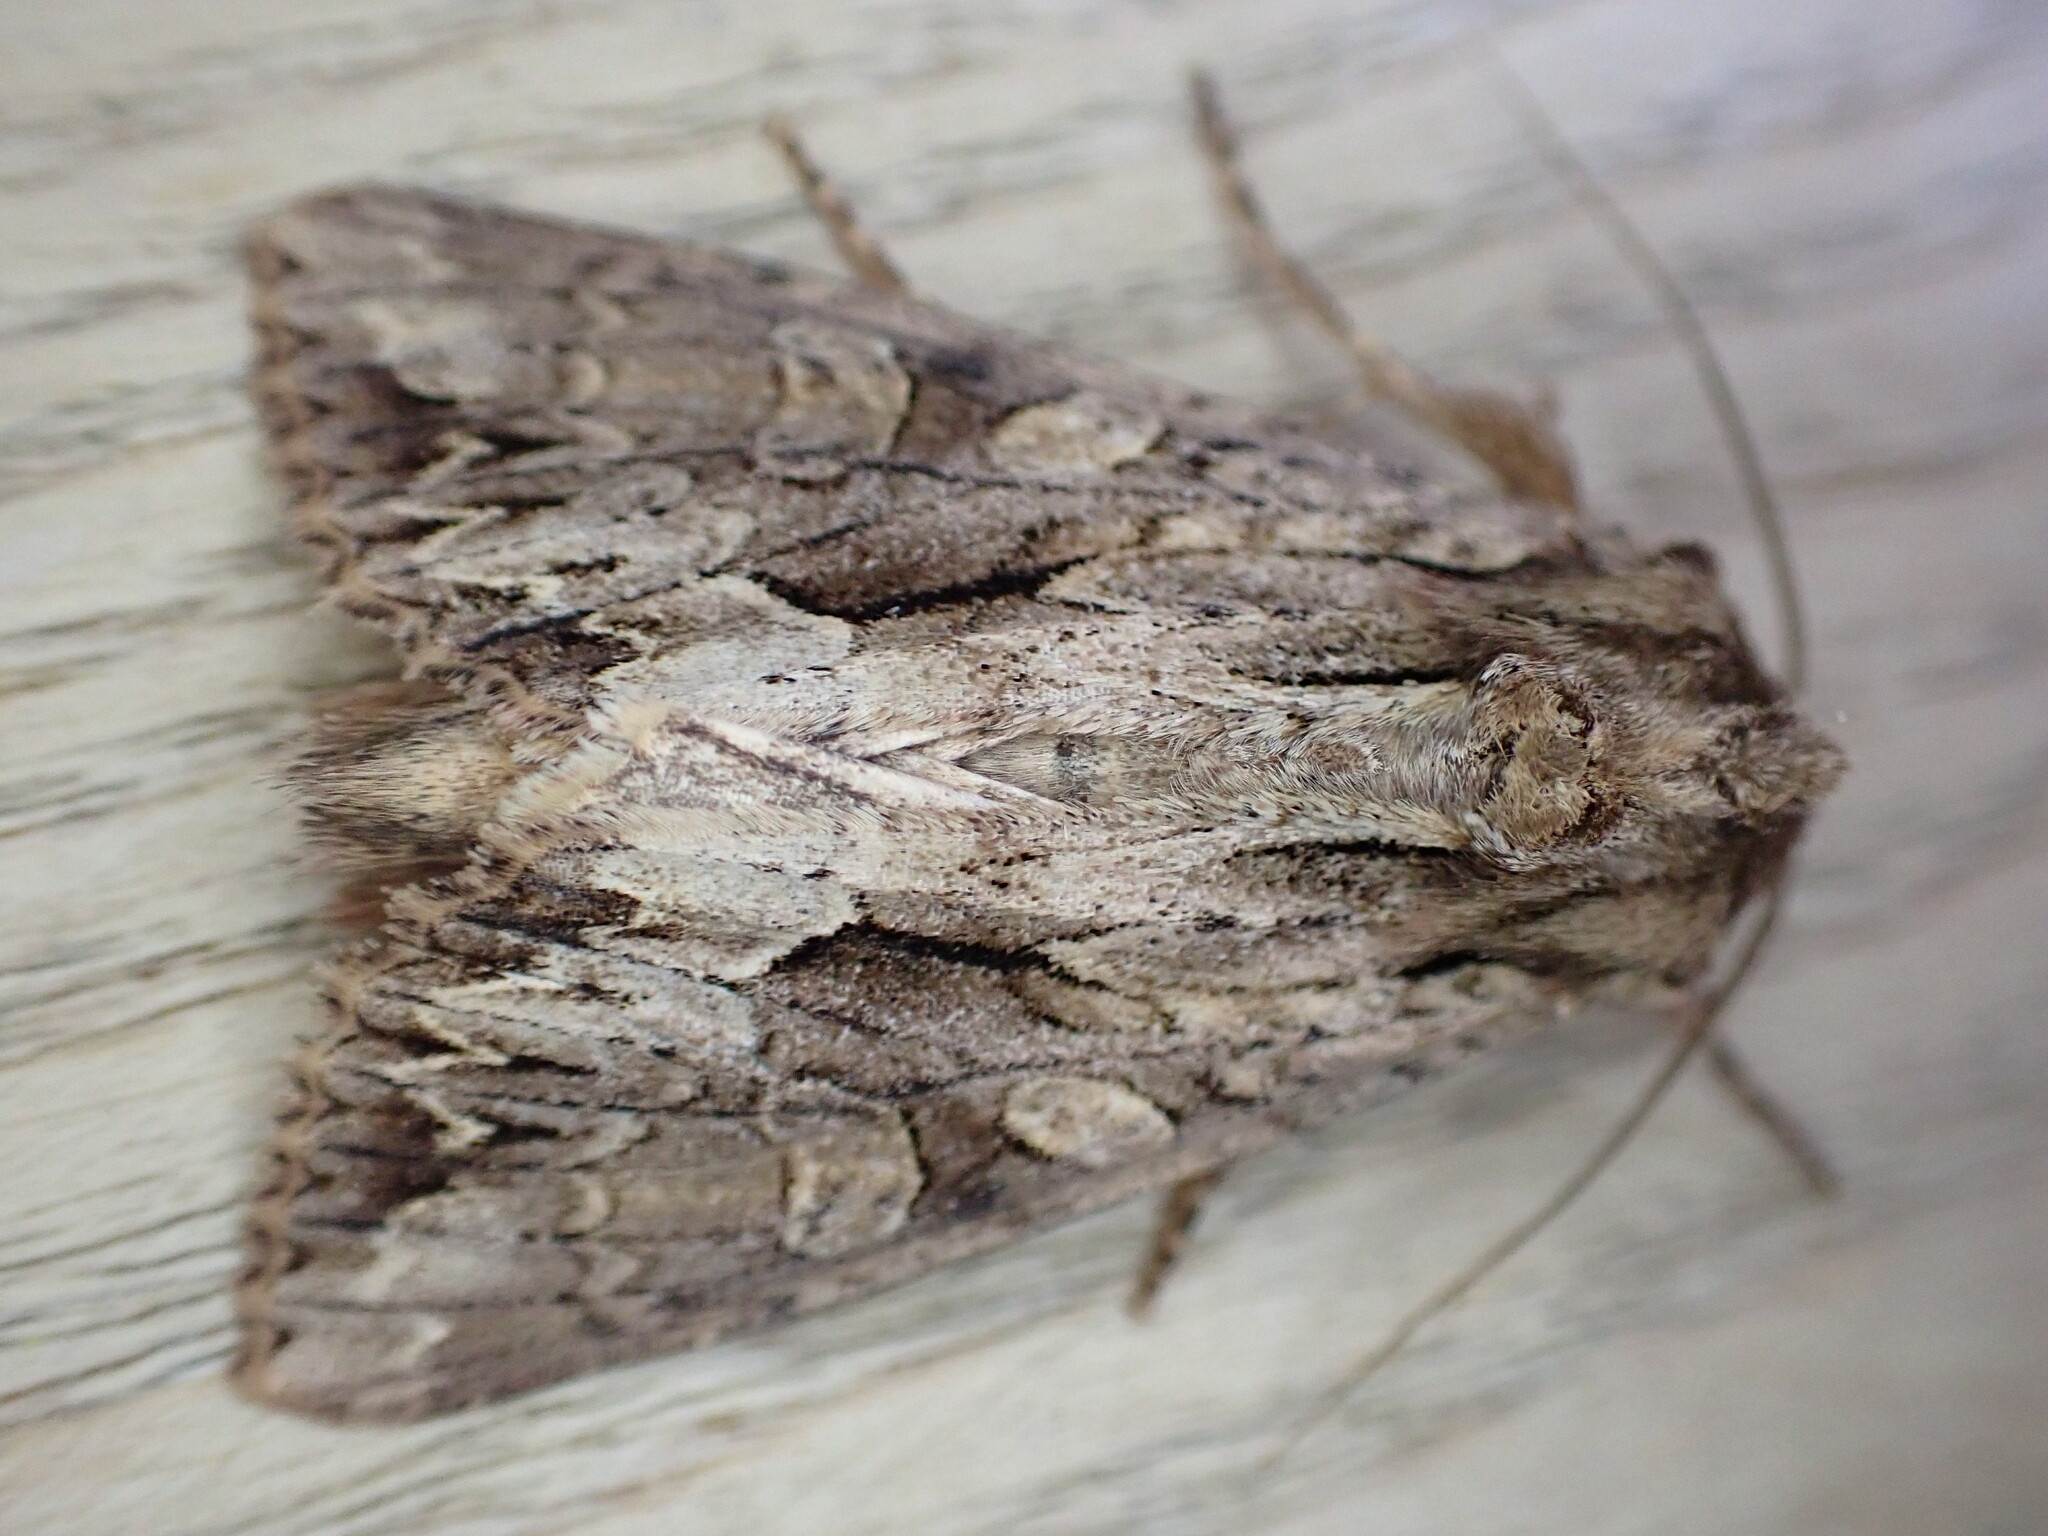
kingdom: Animalia
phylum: Arthropoda
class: Insecta
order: Lepidoptera
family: Noctuidae
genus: Apamea
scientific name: Apamea monoglypha
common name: Dark arches
